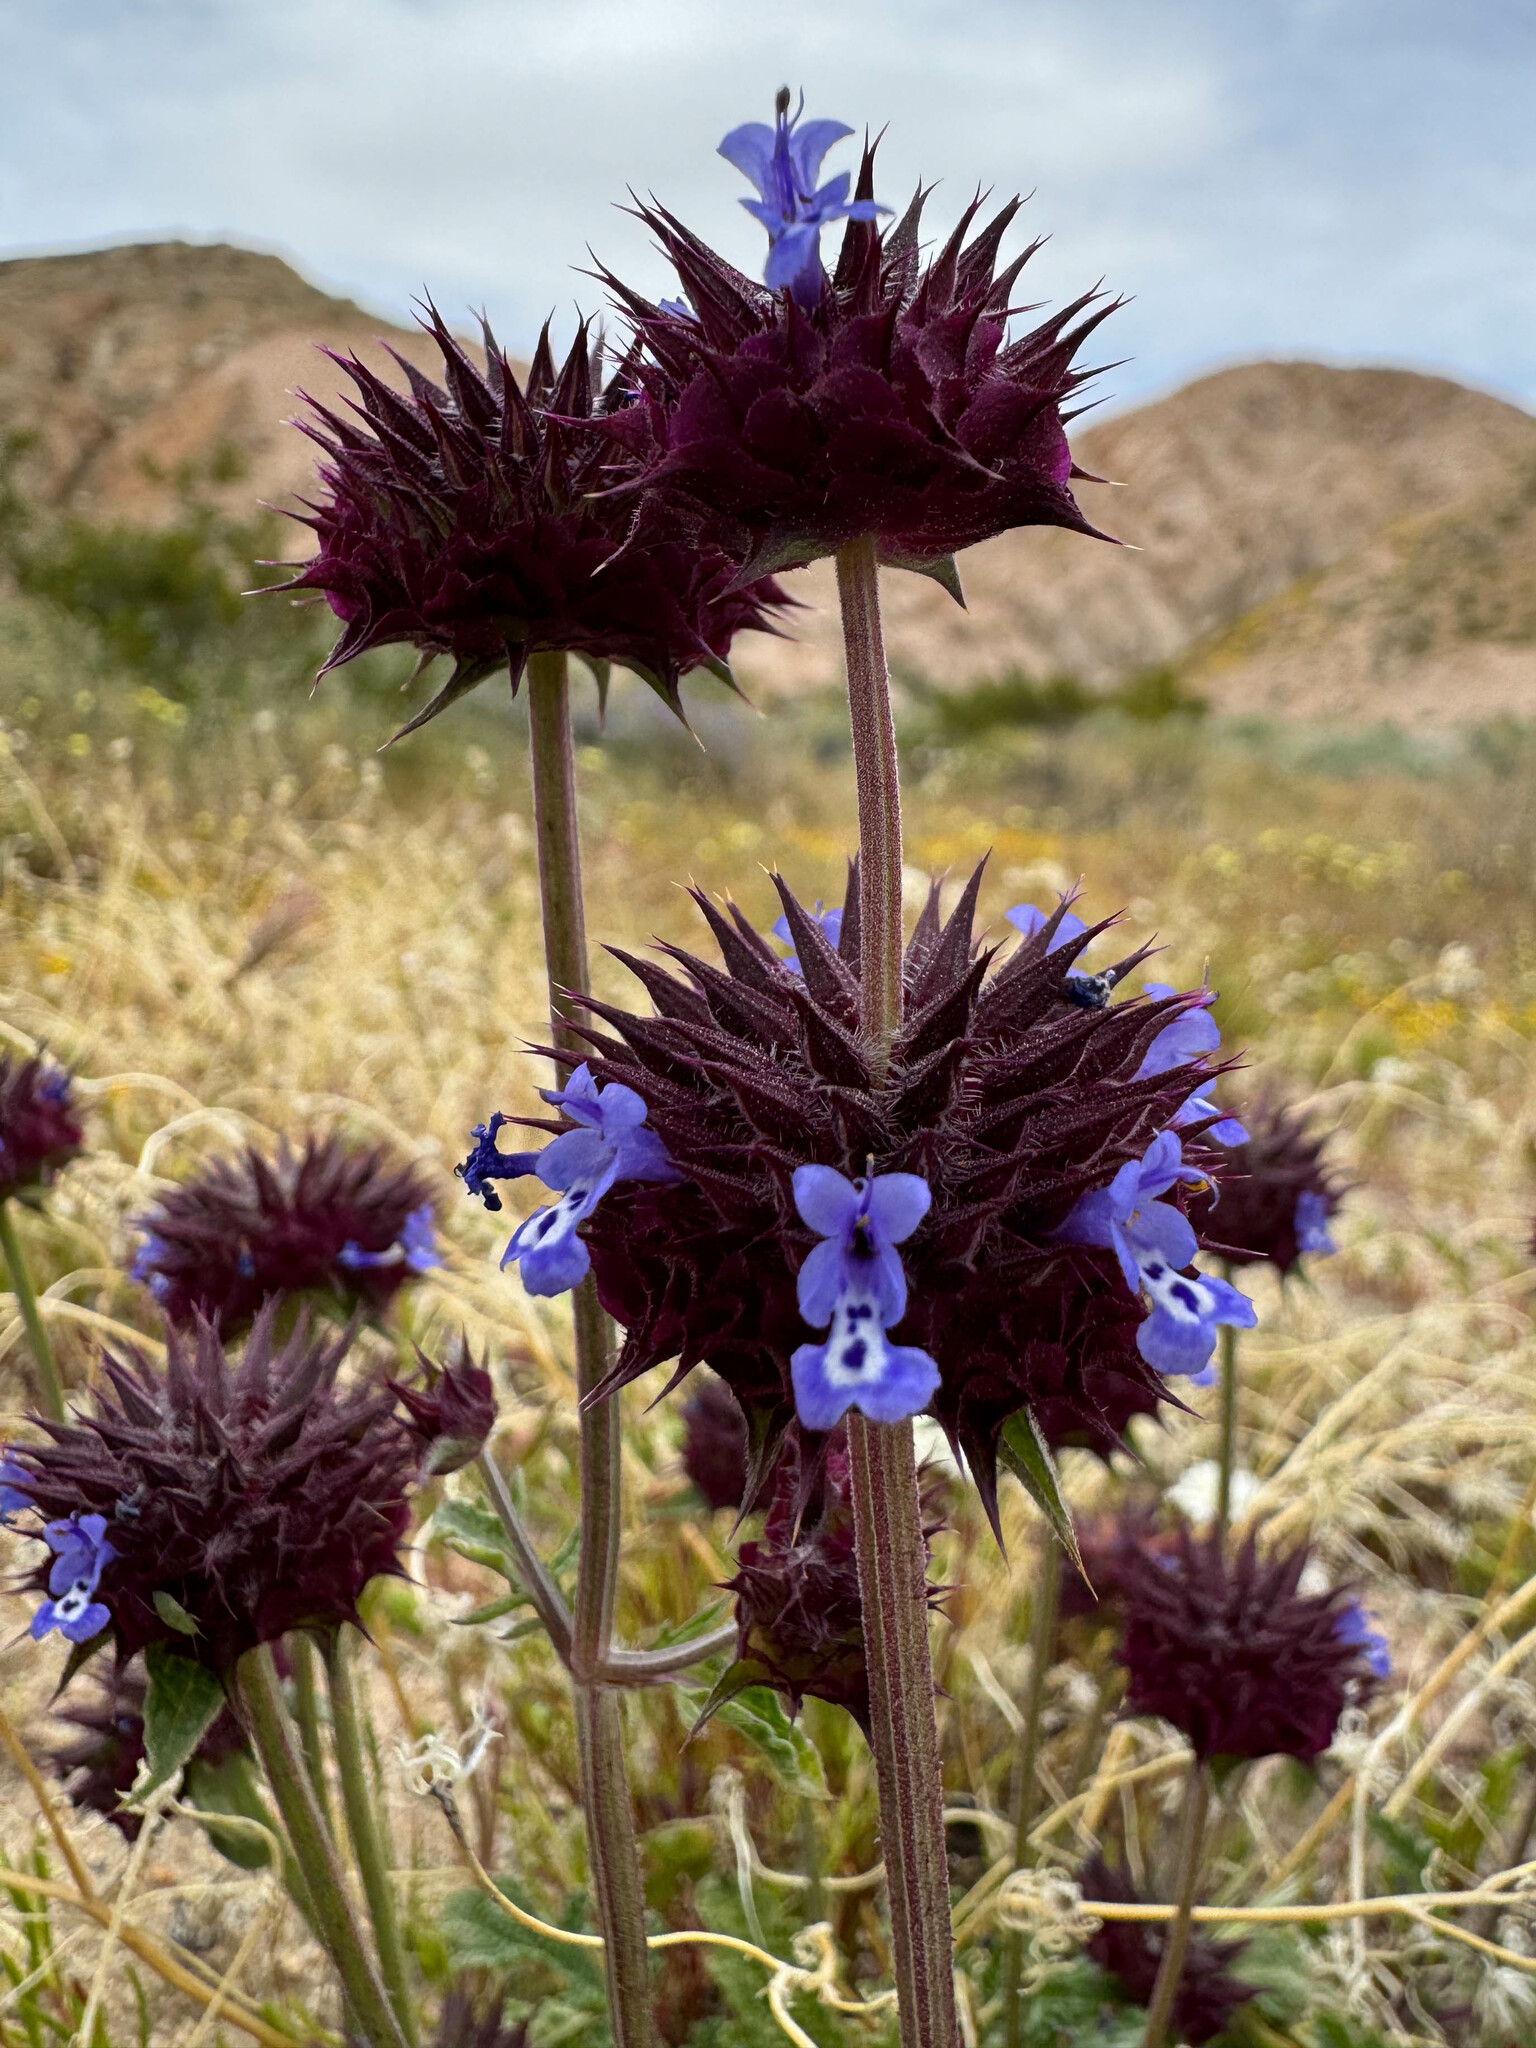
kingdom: Plantae
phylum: Tracheophyta
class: Magnoliopsida
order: Lamiales
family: Lamiaceae
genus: Salvia
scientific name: Salvia columbariae
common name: Chia
